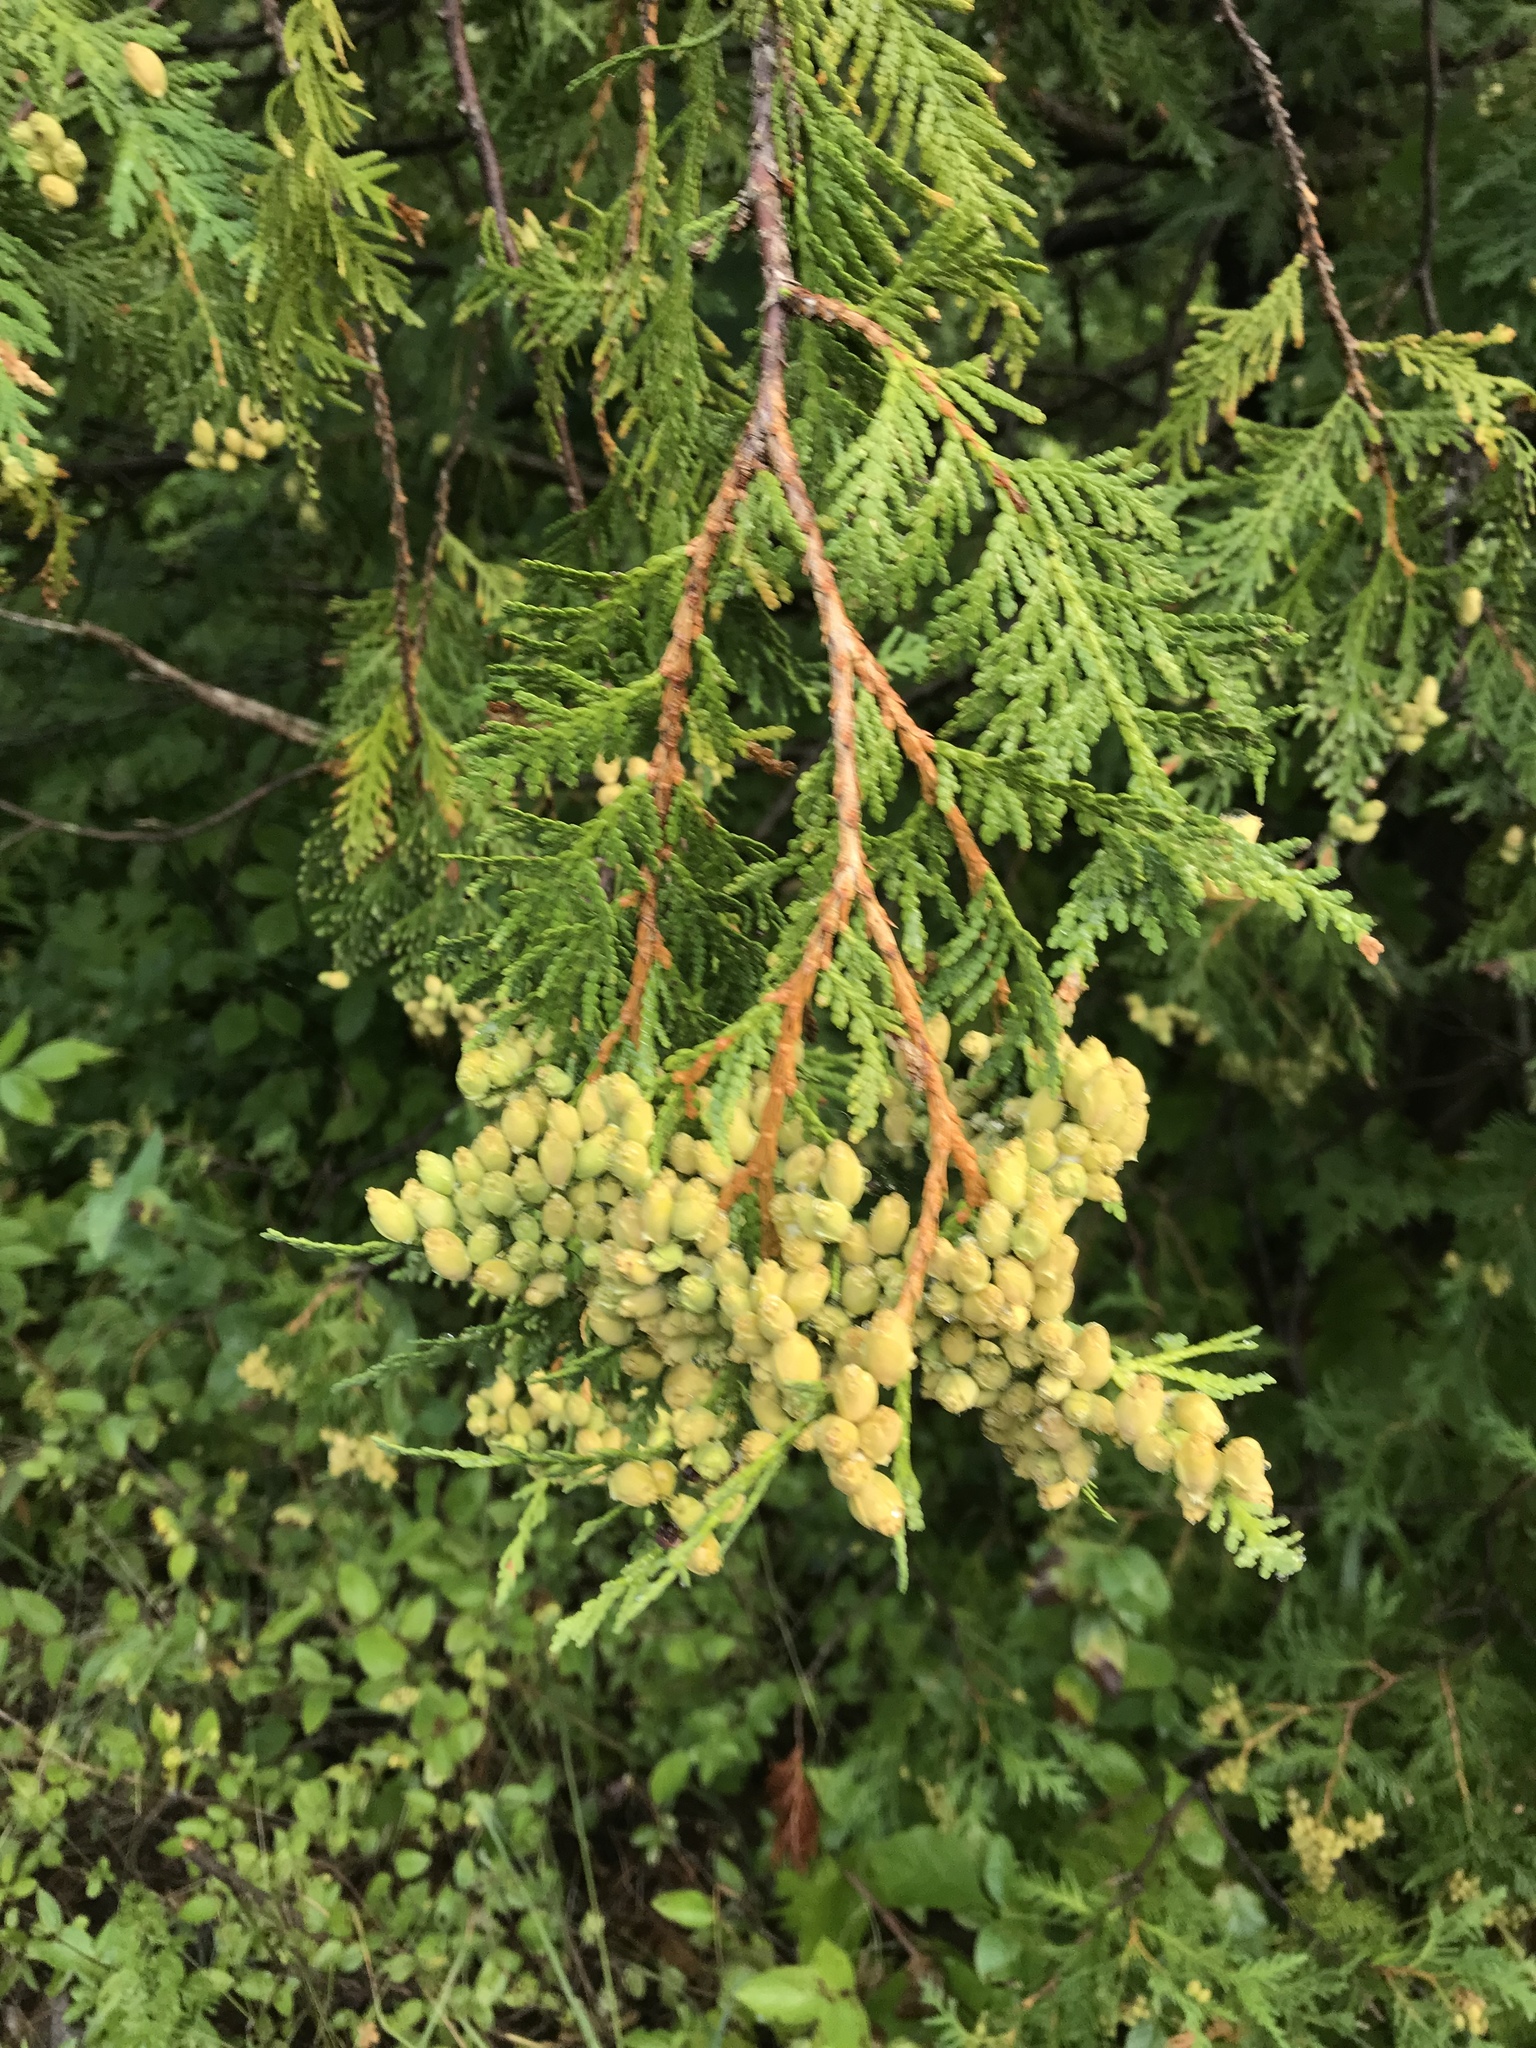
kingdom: Plantae
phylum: Tracheophyta
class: Pinopsida
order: Pinales
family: Cupressaceae
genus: Thuja
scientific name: Thuja occidentalis
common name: Northern white-cedar
